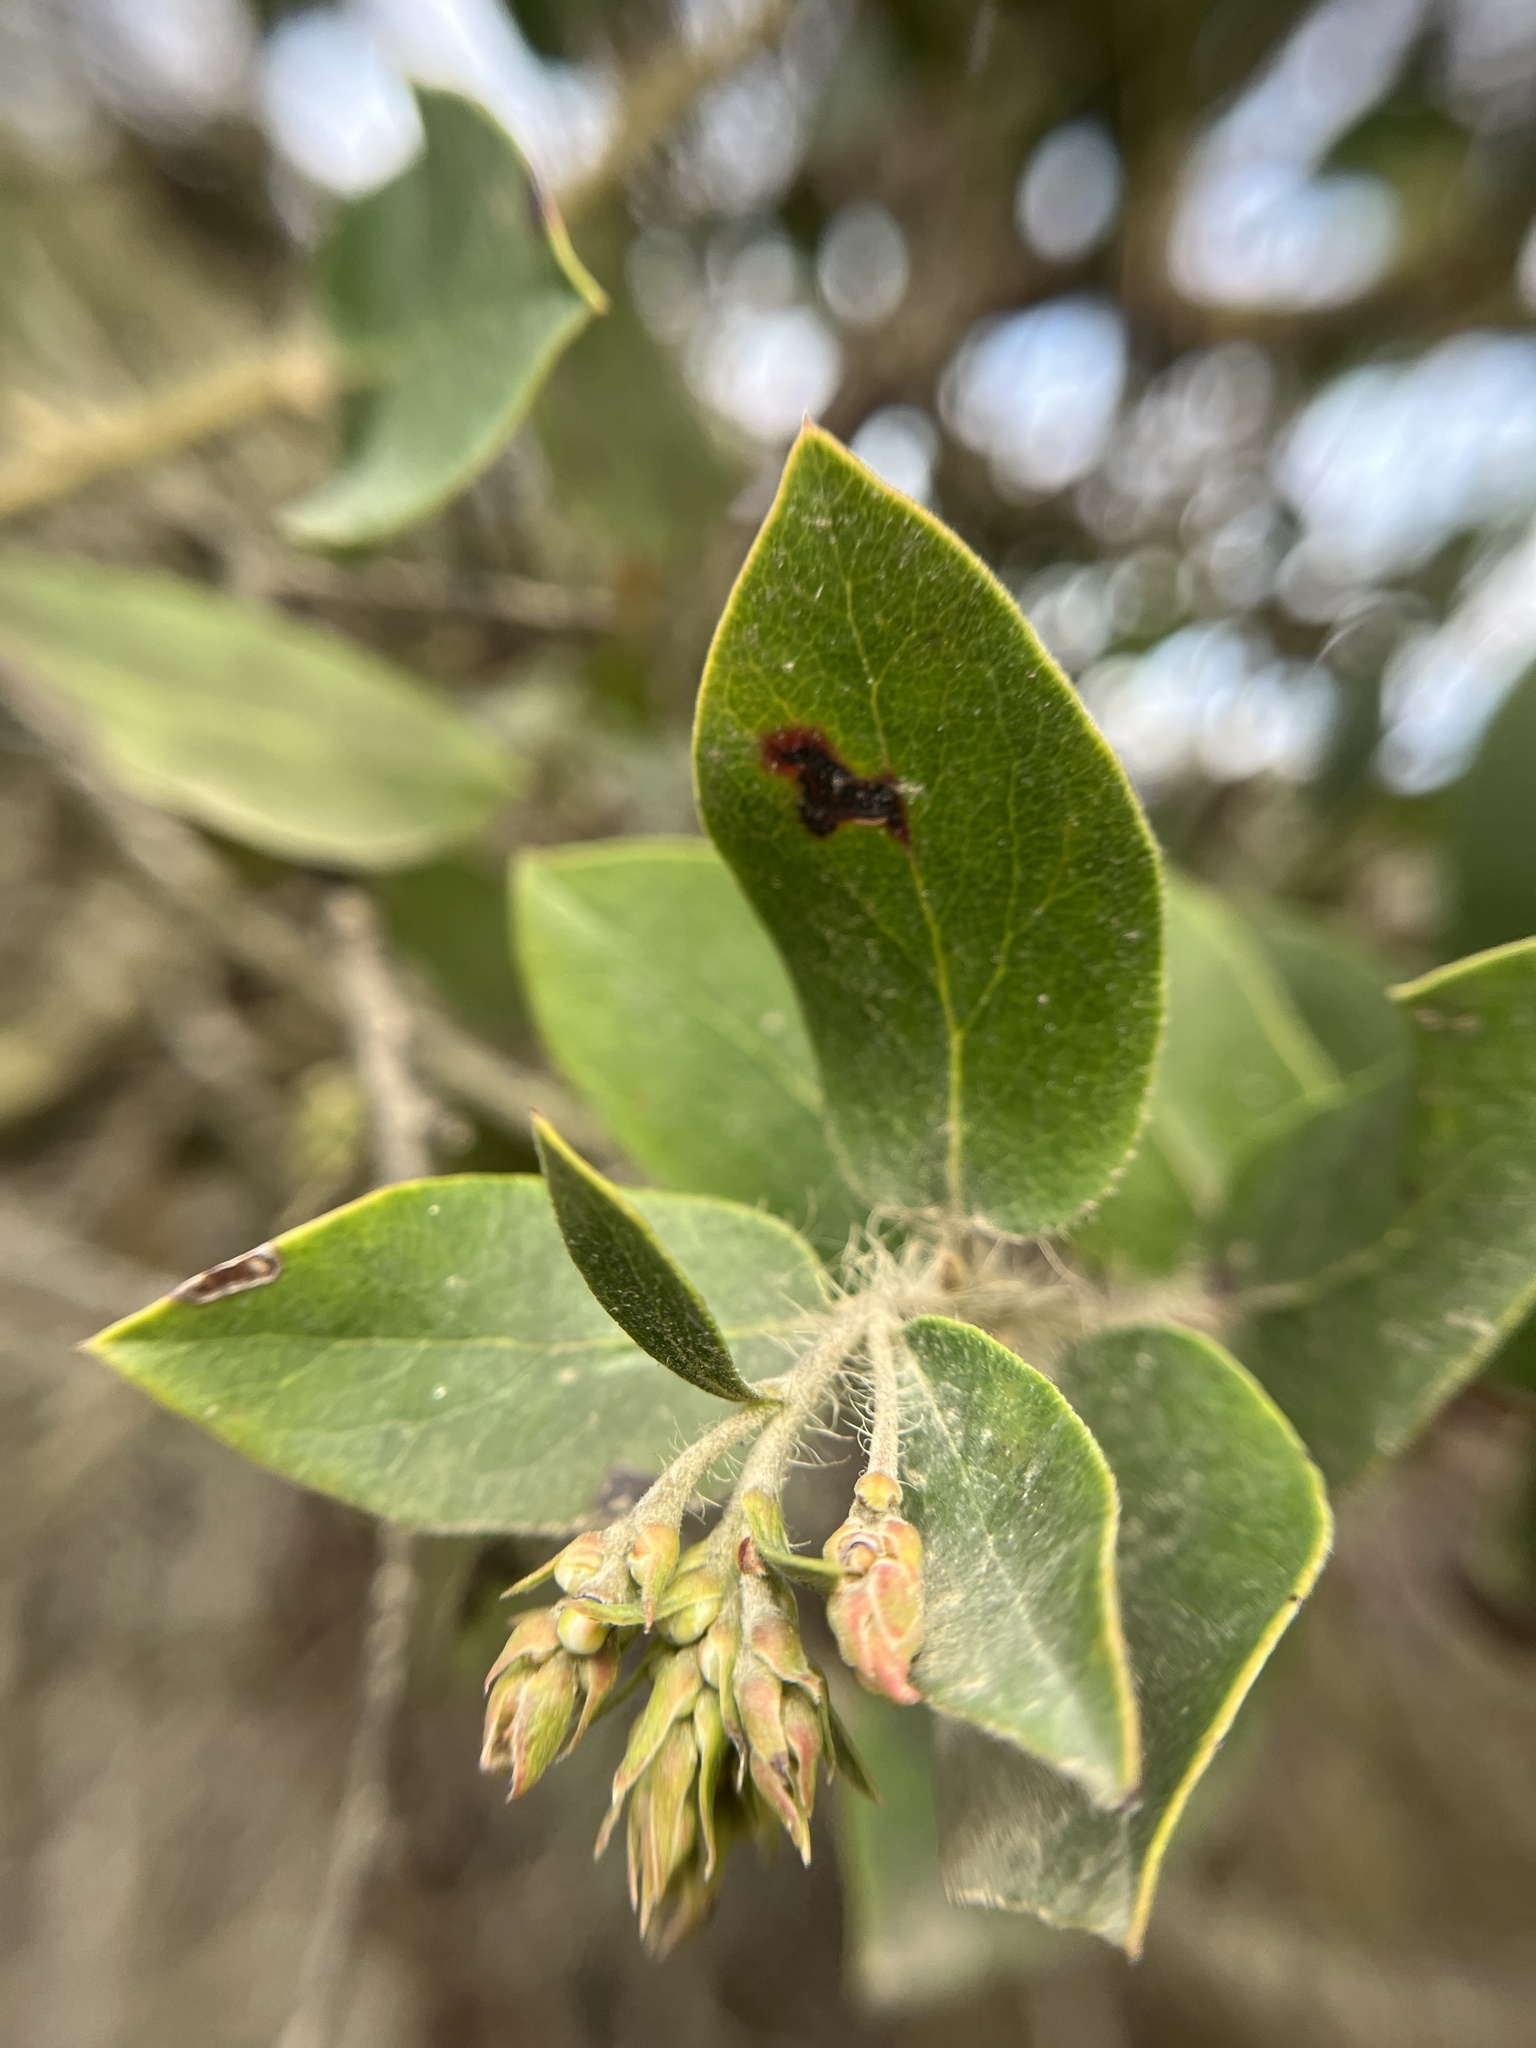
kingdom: Plantae
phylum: Tracheophyta
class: Magnoliopsida
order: Ericales
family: Ericaceae
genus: Arctostaphylos
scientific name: Arctostaphylos crustacea
